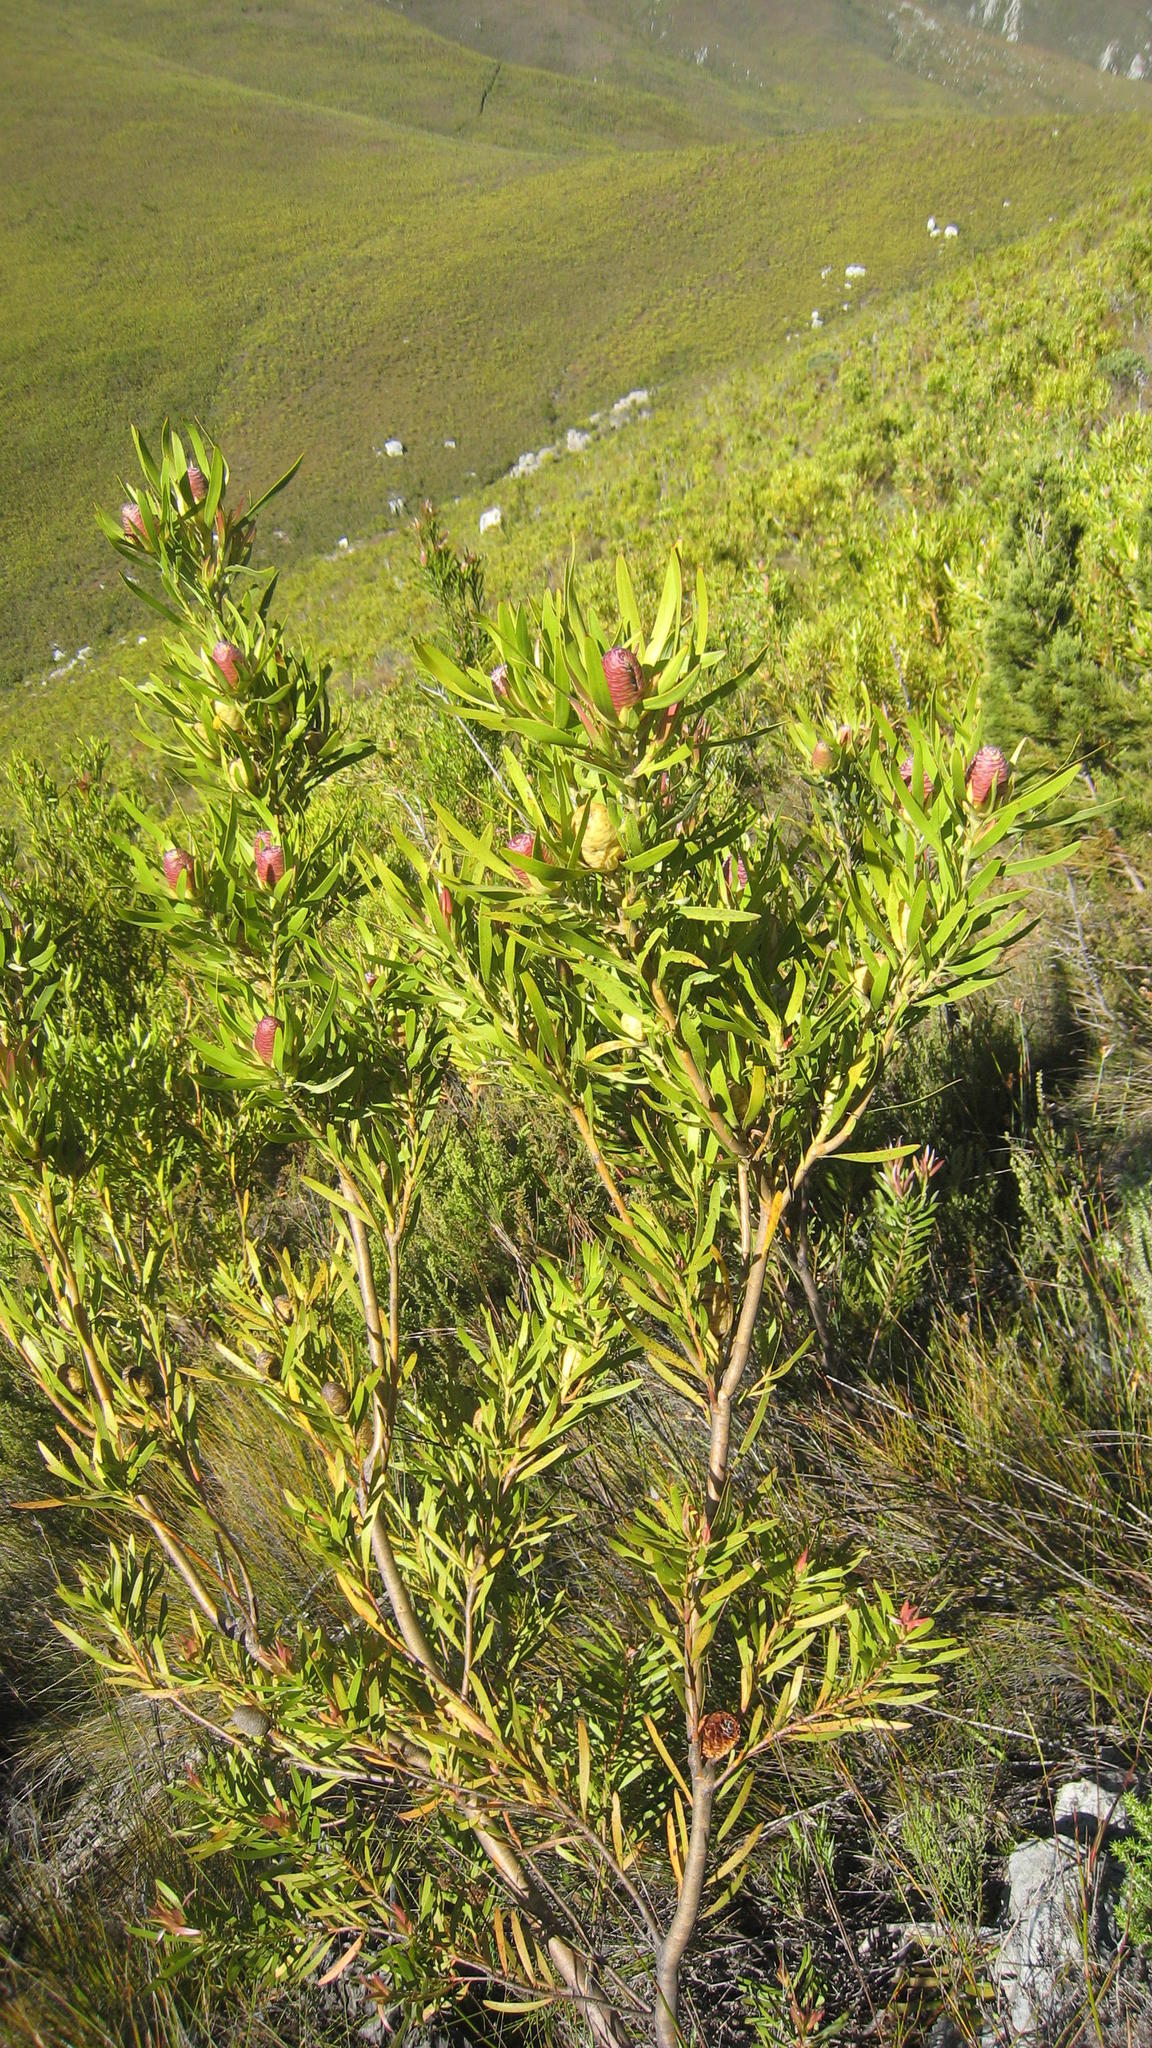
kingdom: Plantae
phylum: Tracheophyta
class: Magnoliopsida
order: Proteales
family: Proteaceae
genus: Leucadendron
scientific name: Leucadendron eucalyptifolium
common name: Gum-leaved conebush
